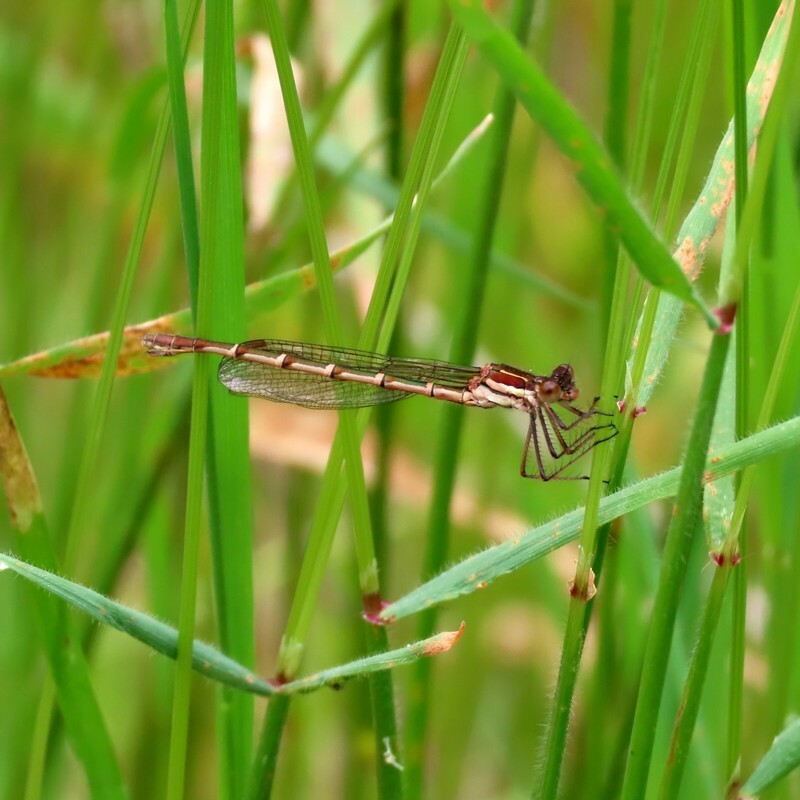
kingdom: Animalia
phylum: Arthropoda
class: Insecta
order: Odonata
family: Lestidae
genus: Austrolestes
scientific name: Austrolestes psyche
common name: Cup ringtail
